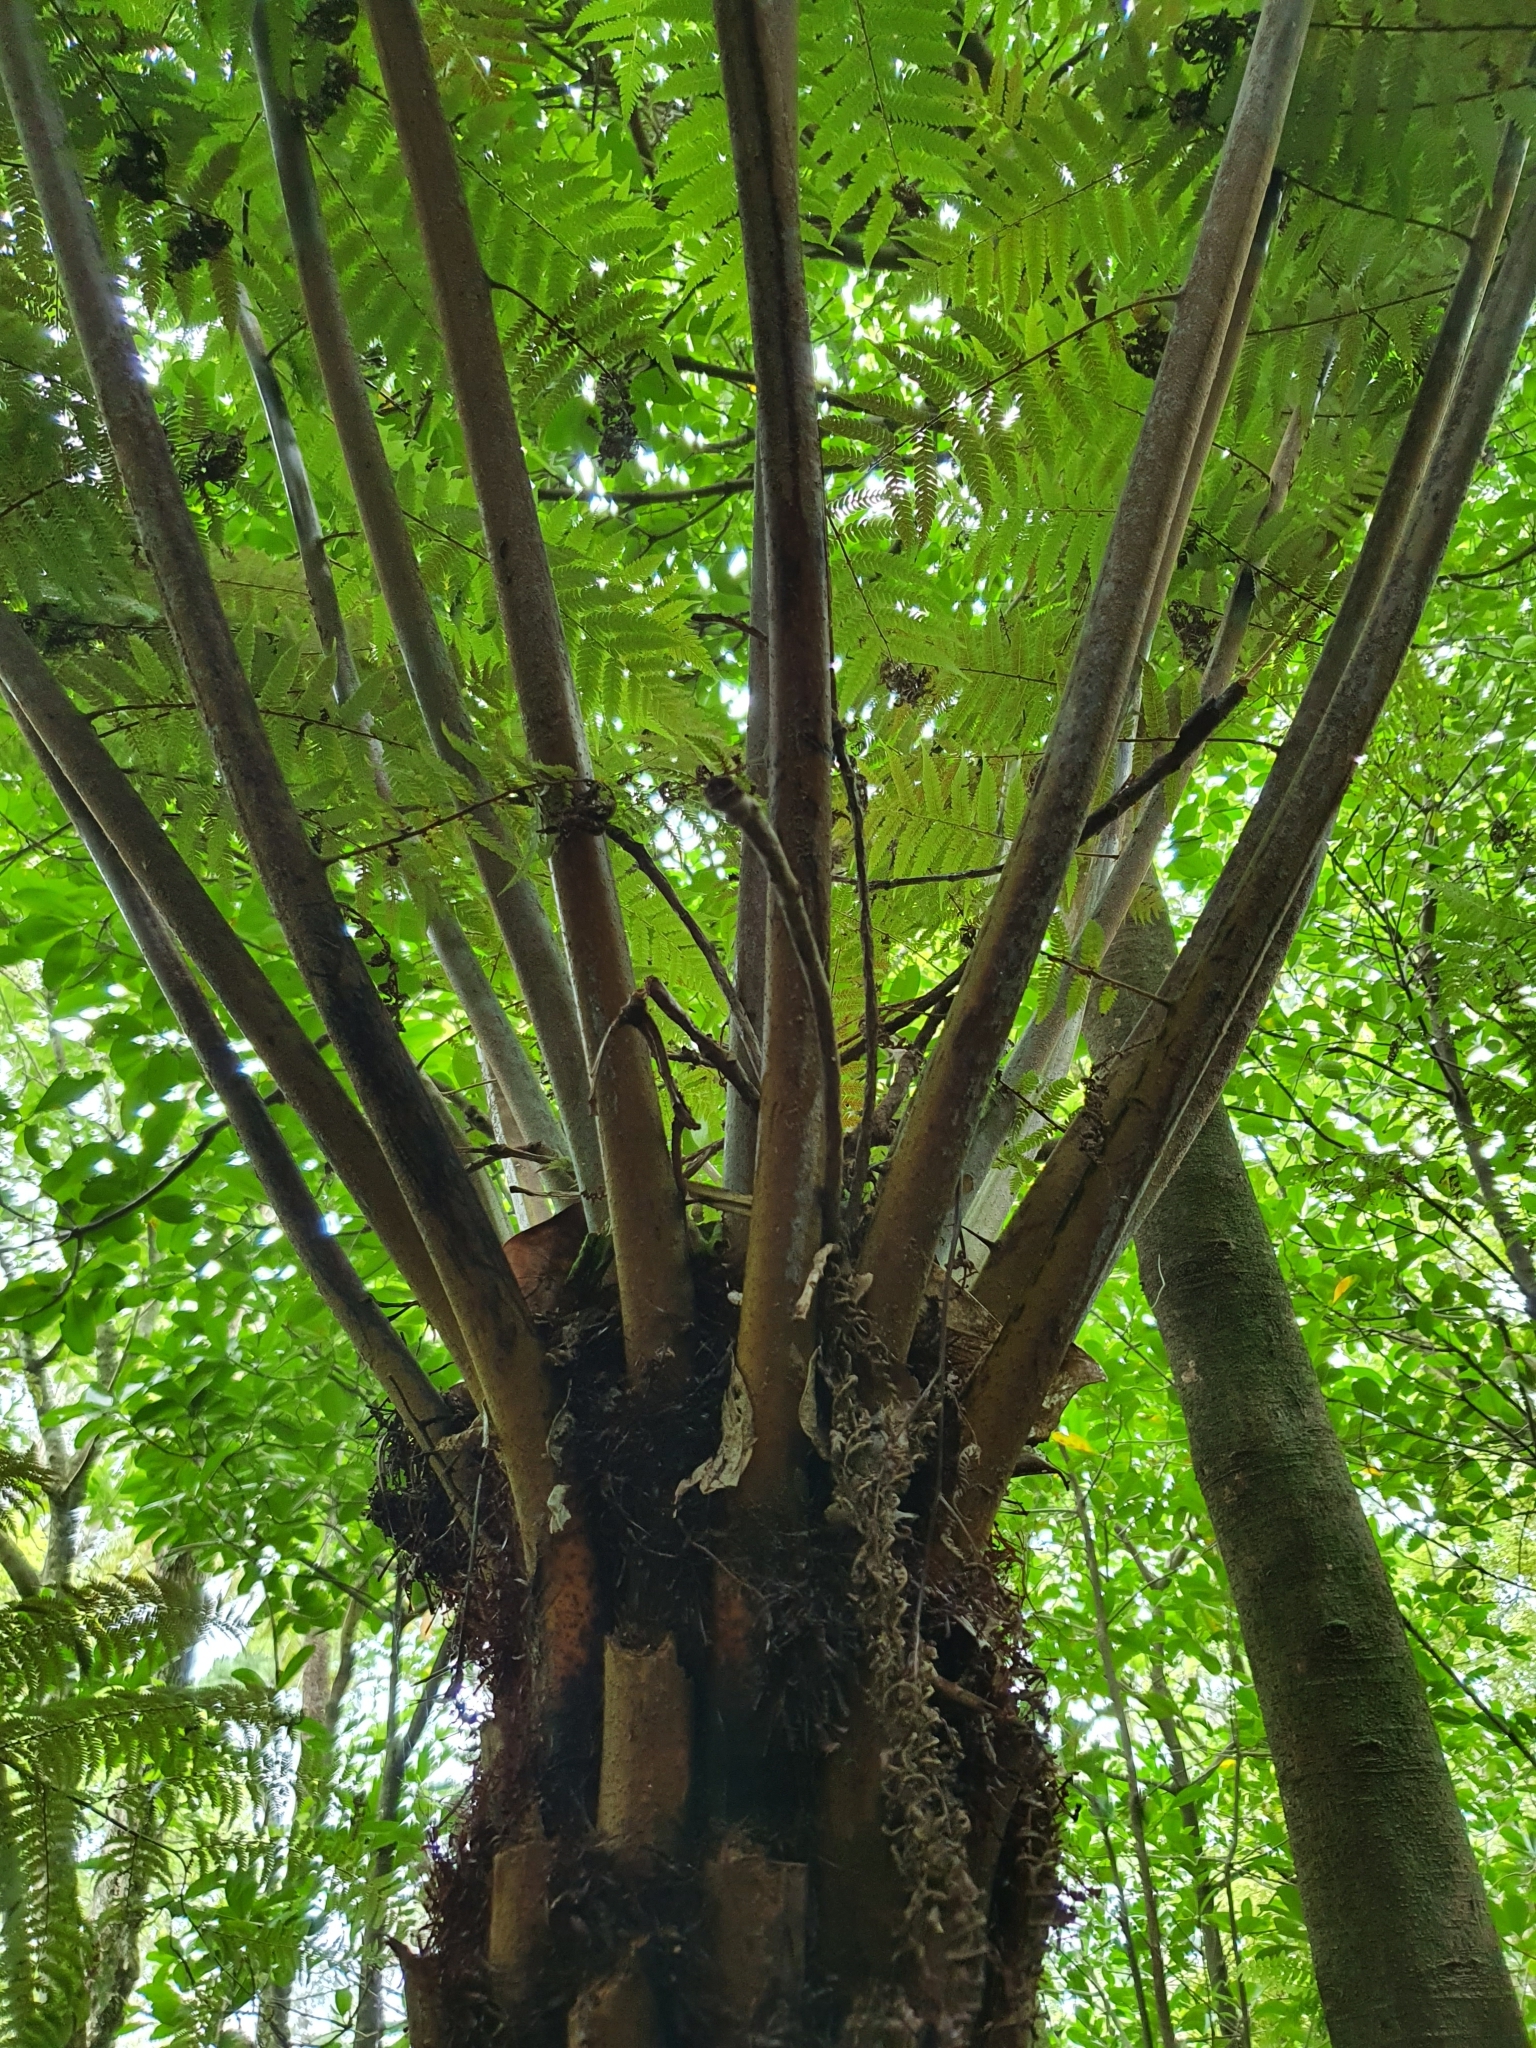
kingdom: Plantae
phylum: Tracheophyta
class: Polypodiopsida
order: Cyatheales
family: Cyatheaceae
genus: Alsophila
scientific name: Alsophila dealbata
